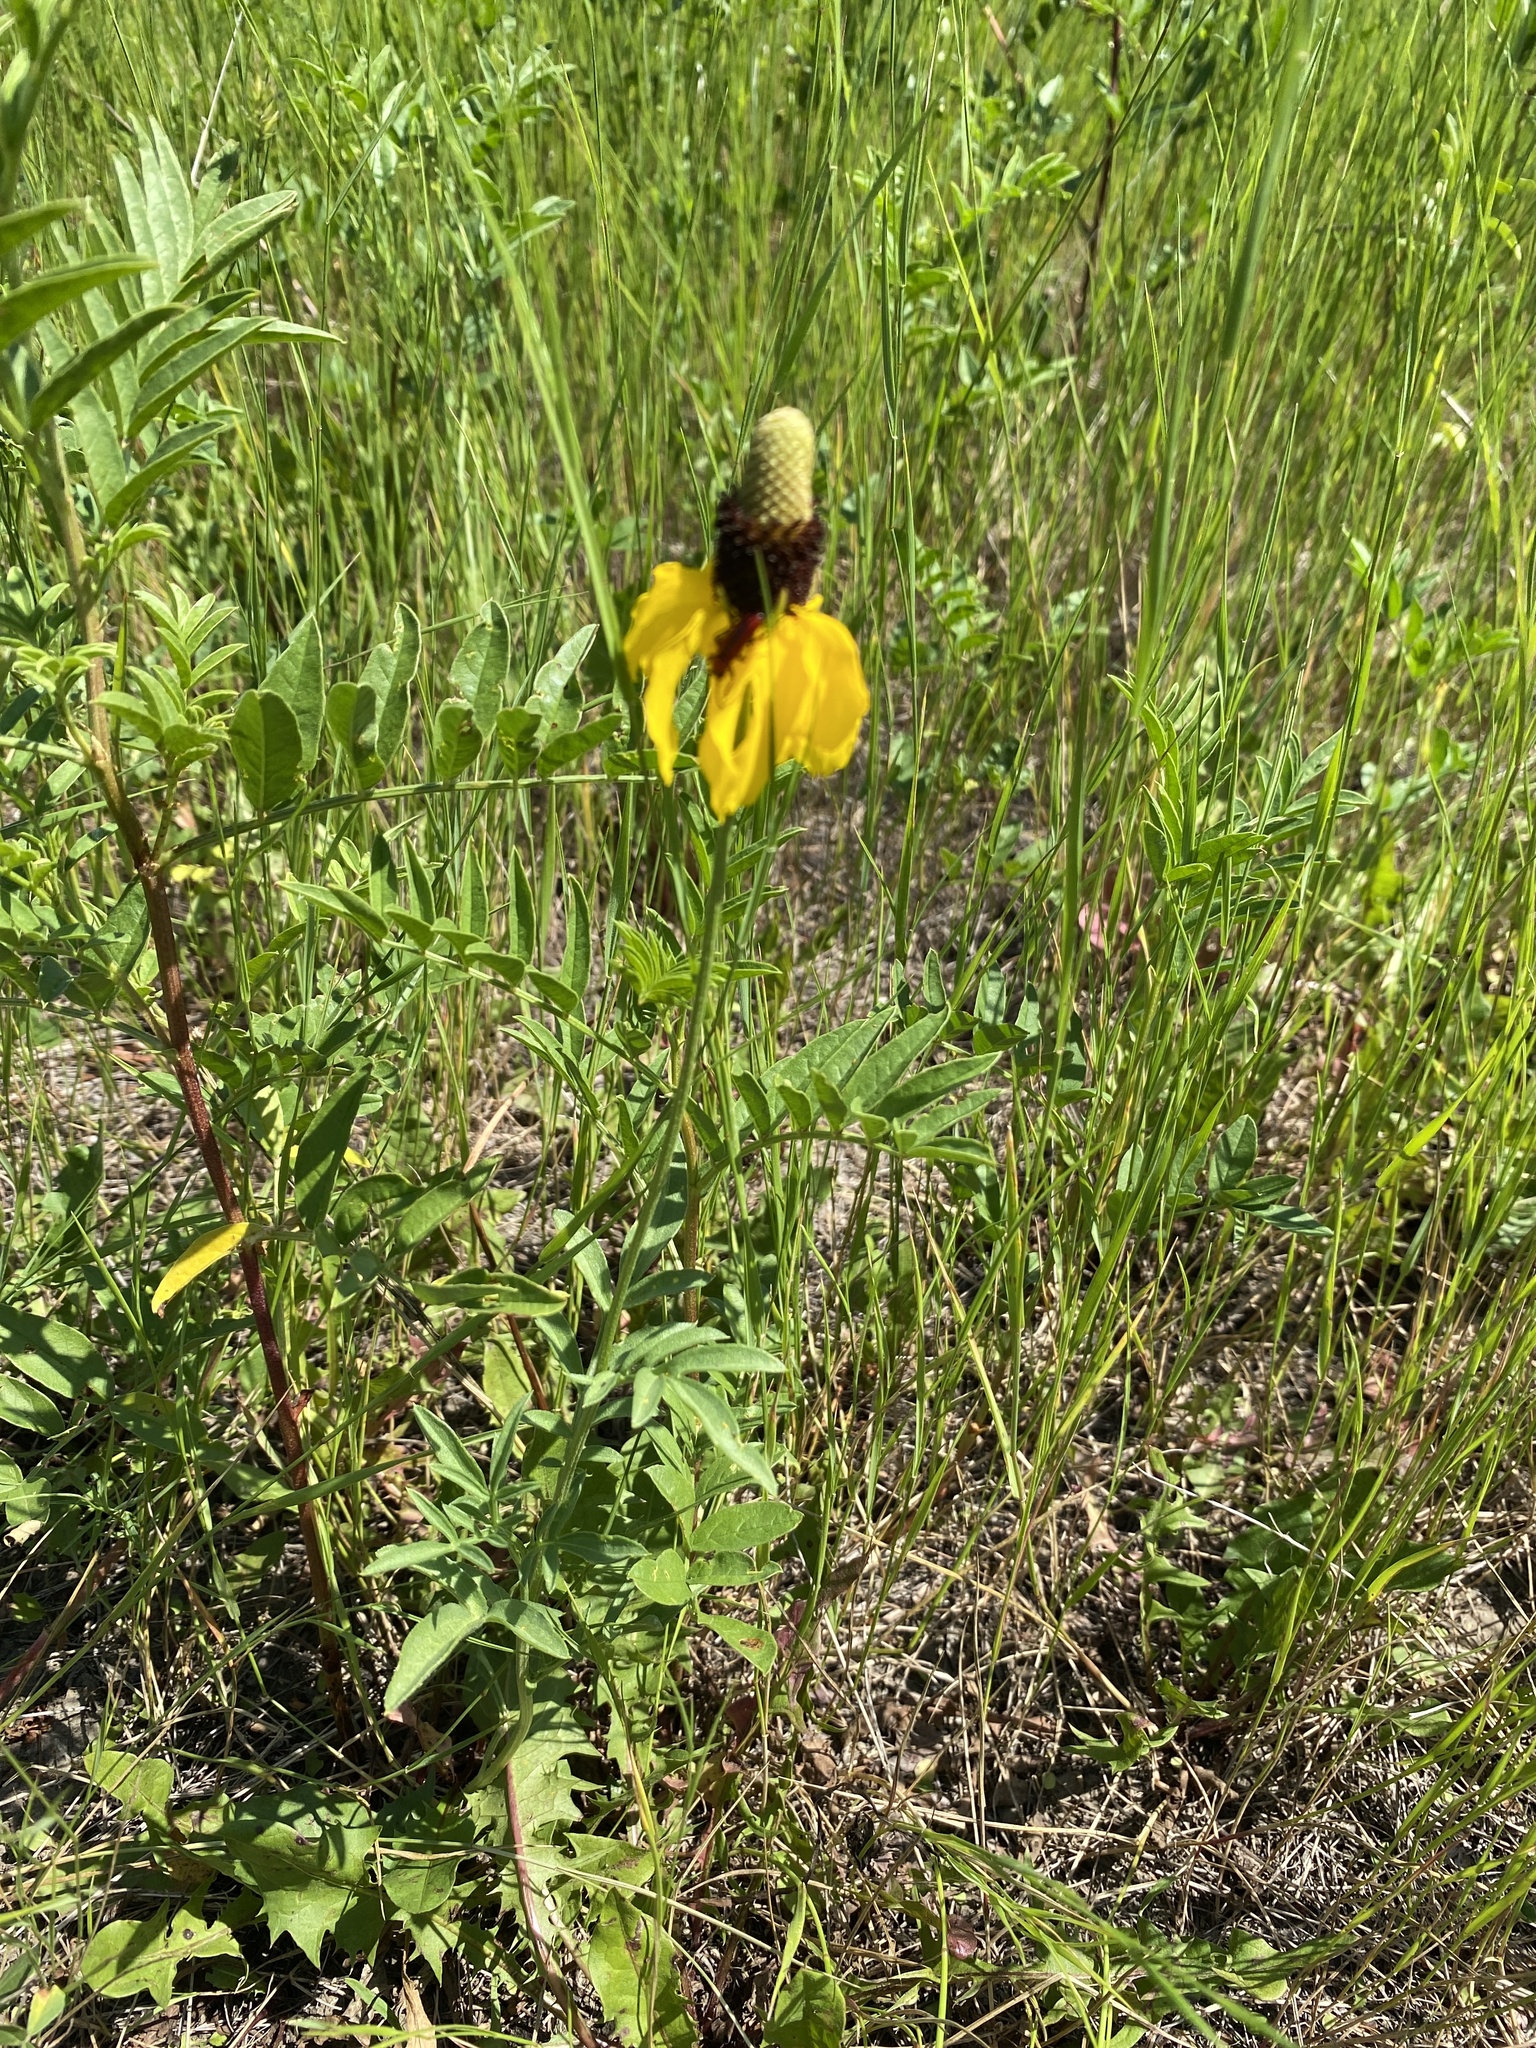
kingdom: Plantae
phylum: Tracheophyta
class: Magnoliopsida
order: Asterales
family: Asteraceae
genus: Ratibida
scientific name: Ratibida columnifera
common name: Prairie coneflower
